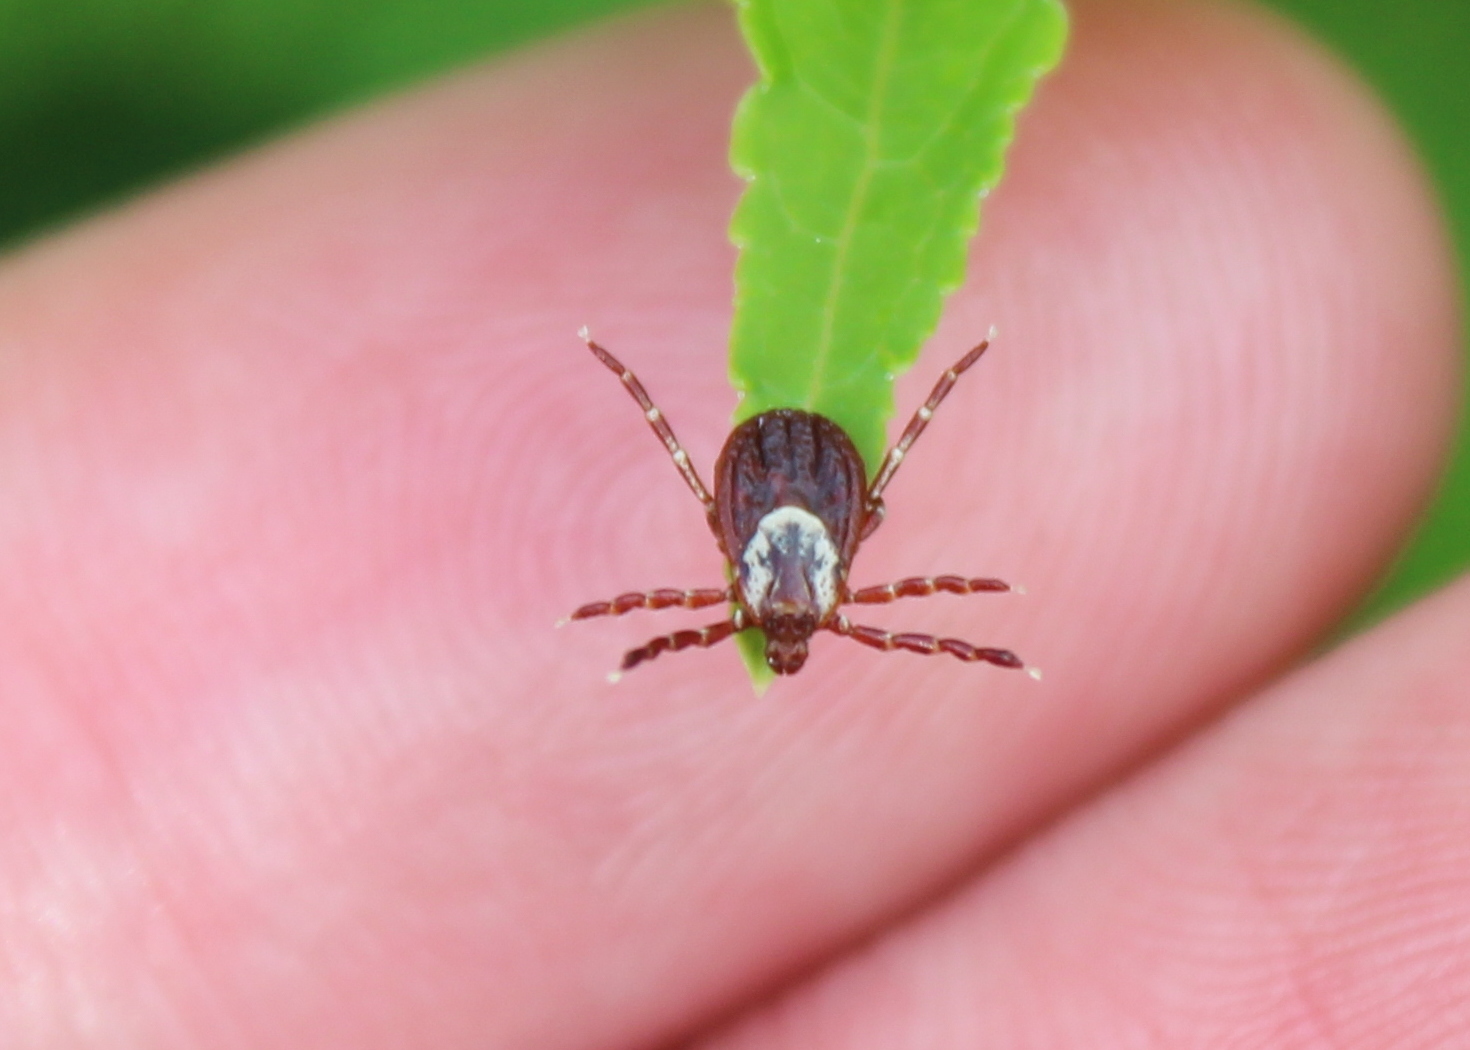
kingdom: Animalia
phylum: Arthropoda
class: Arachnida
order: Ixodida
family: Ixodidae
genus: Dermacentor
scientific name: Dermacentor variabilis
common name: American dog tick
